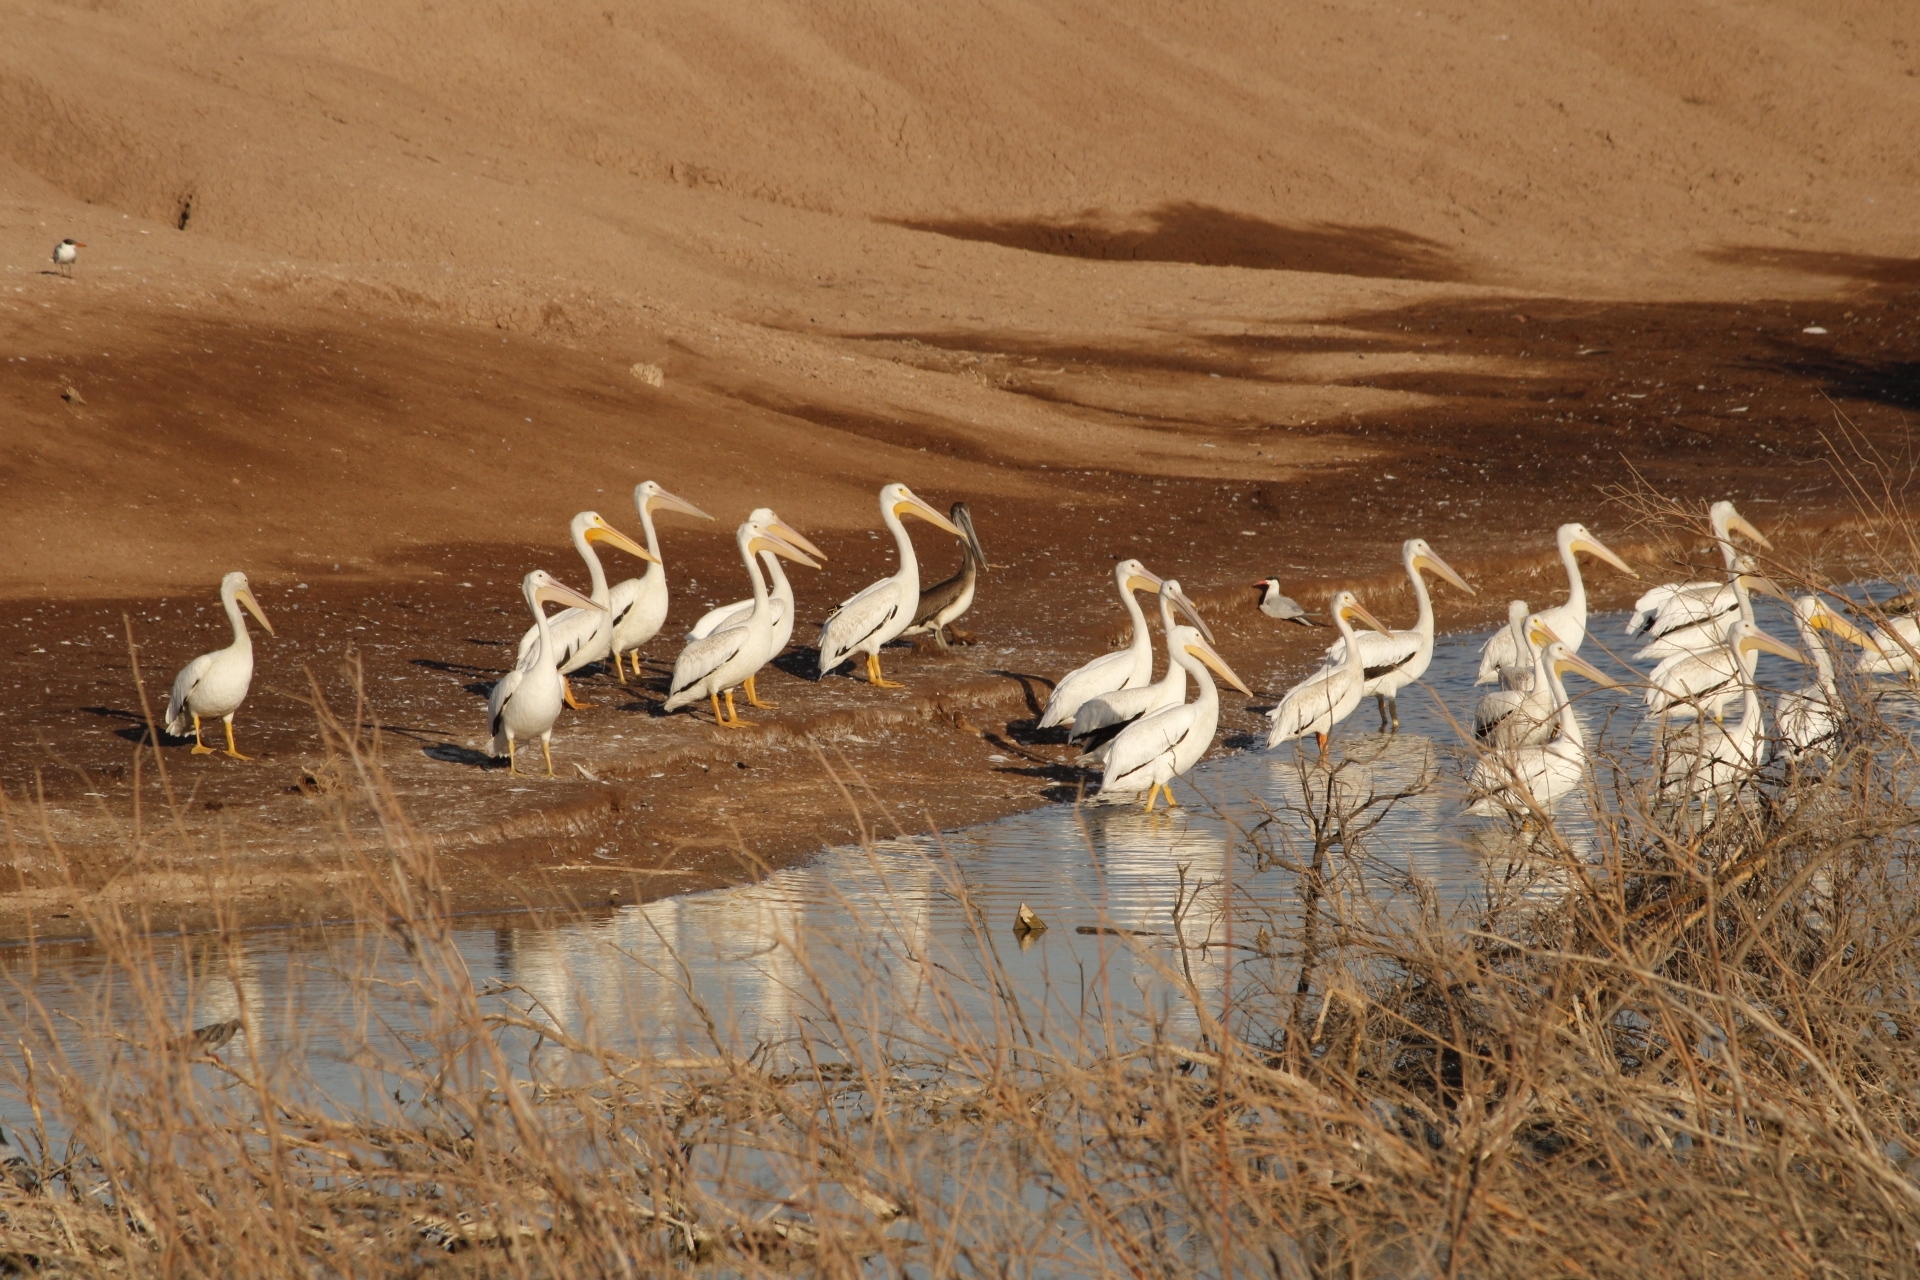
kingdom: Animalia
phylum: Chordata
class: Aves
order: Pelecaniformes
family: Pelecanidae
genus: Pelecanus
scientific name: Pelecanus erythrorhynchos
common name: American white pelican
